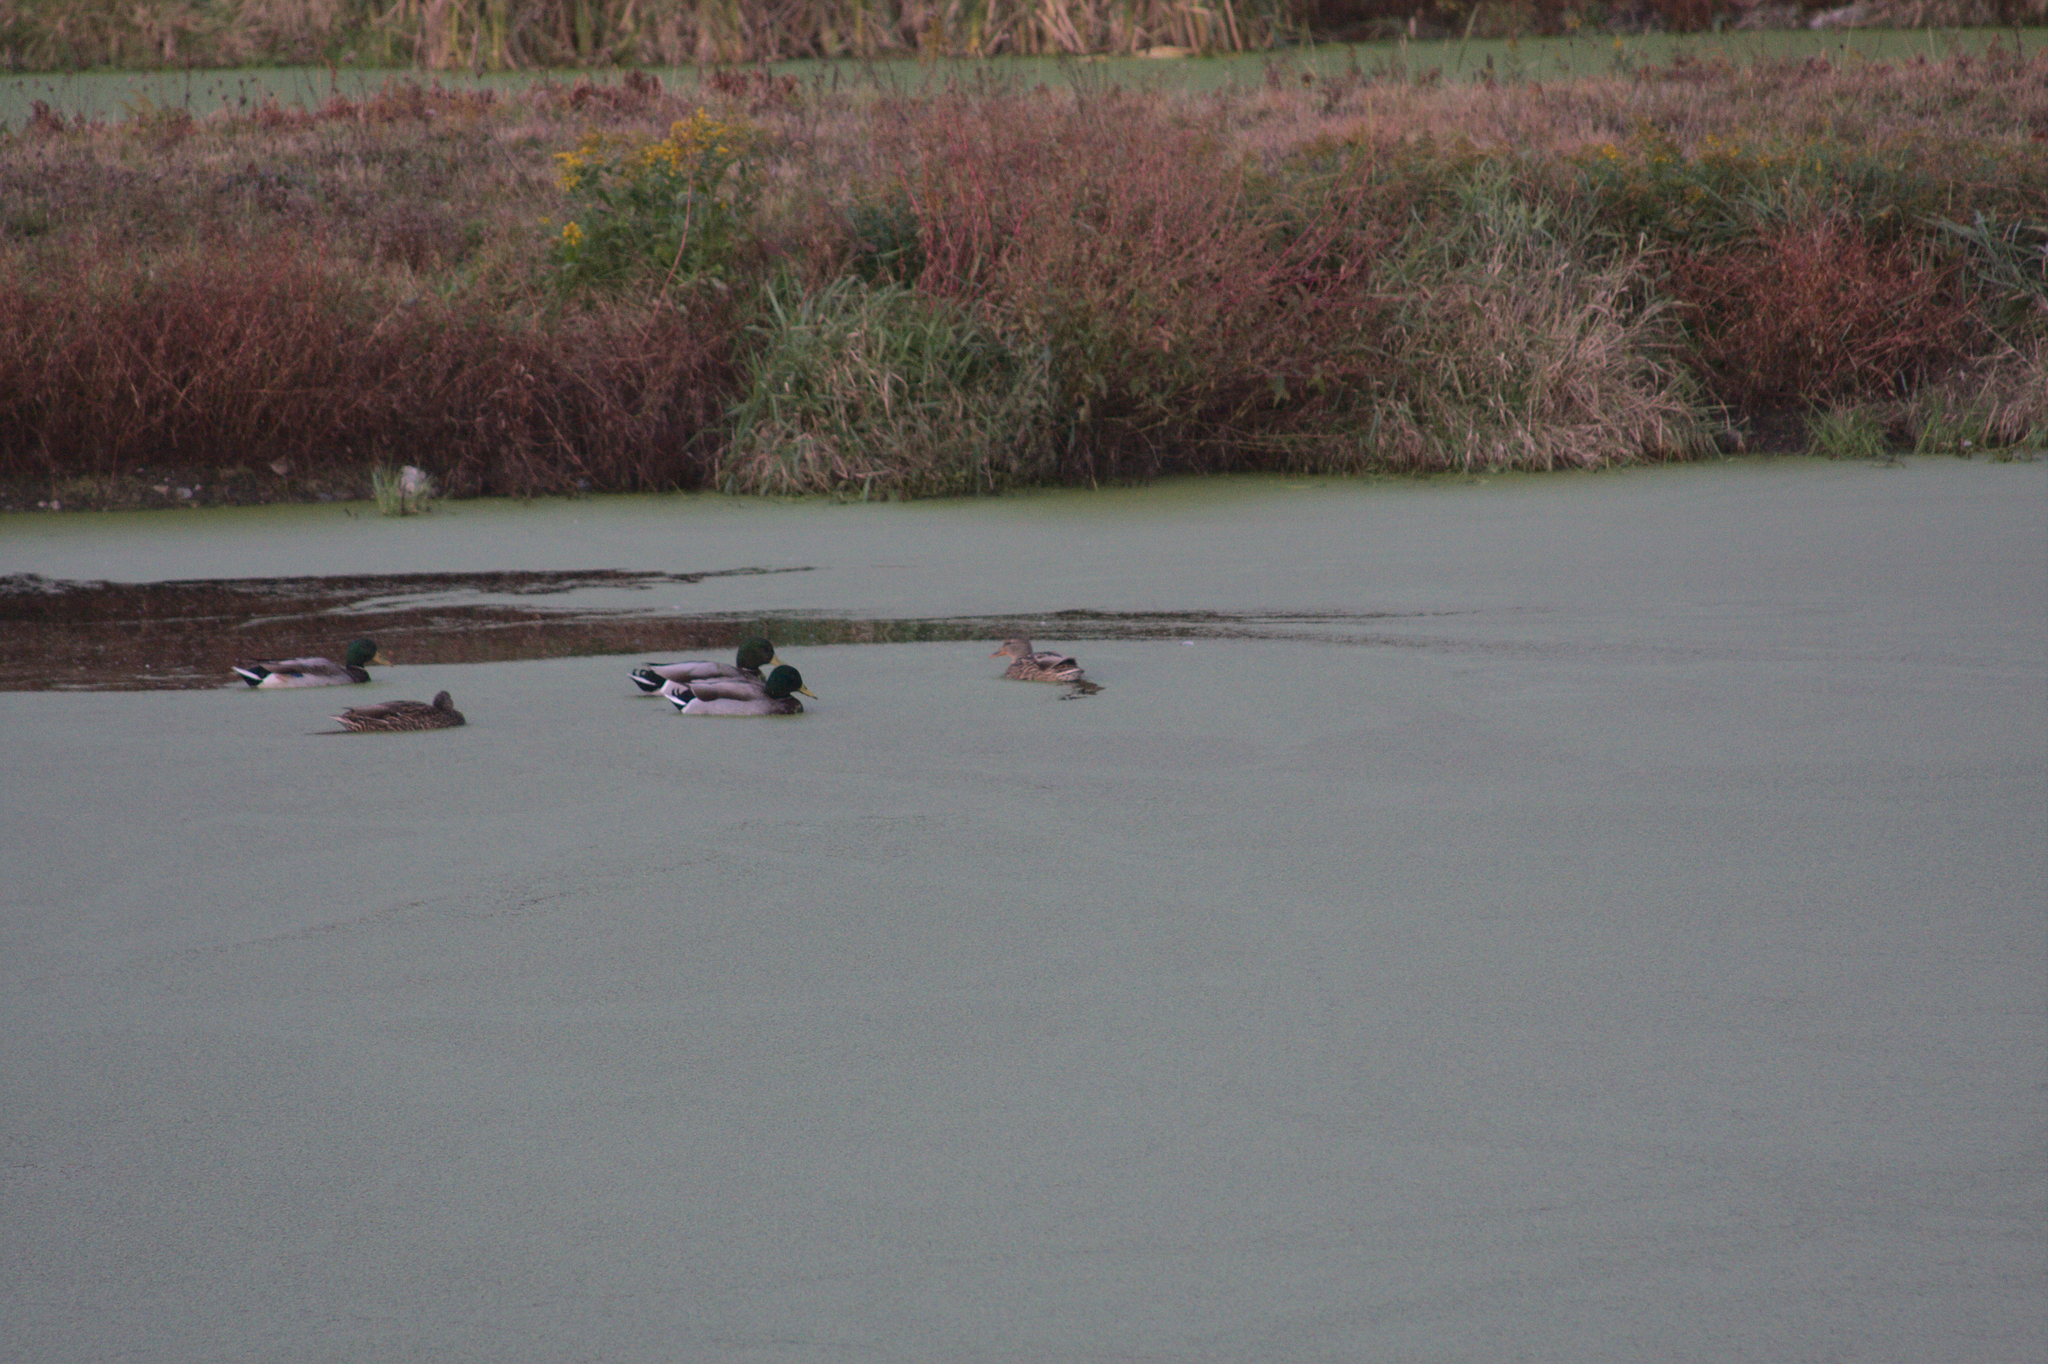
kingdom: Animalia
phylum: Chordata
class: Aves
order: Anseriformes
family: Anatidae
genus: Anas
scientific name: Anas platyrhynchos
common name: Mallard
